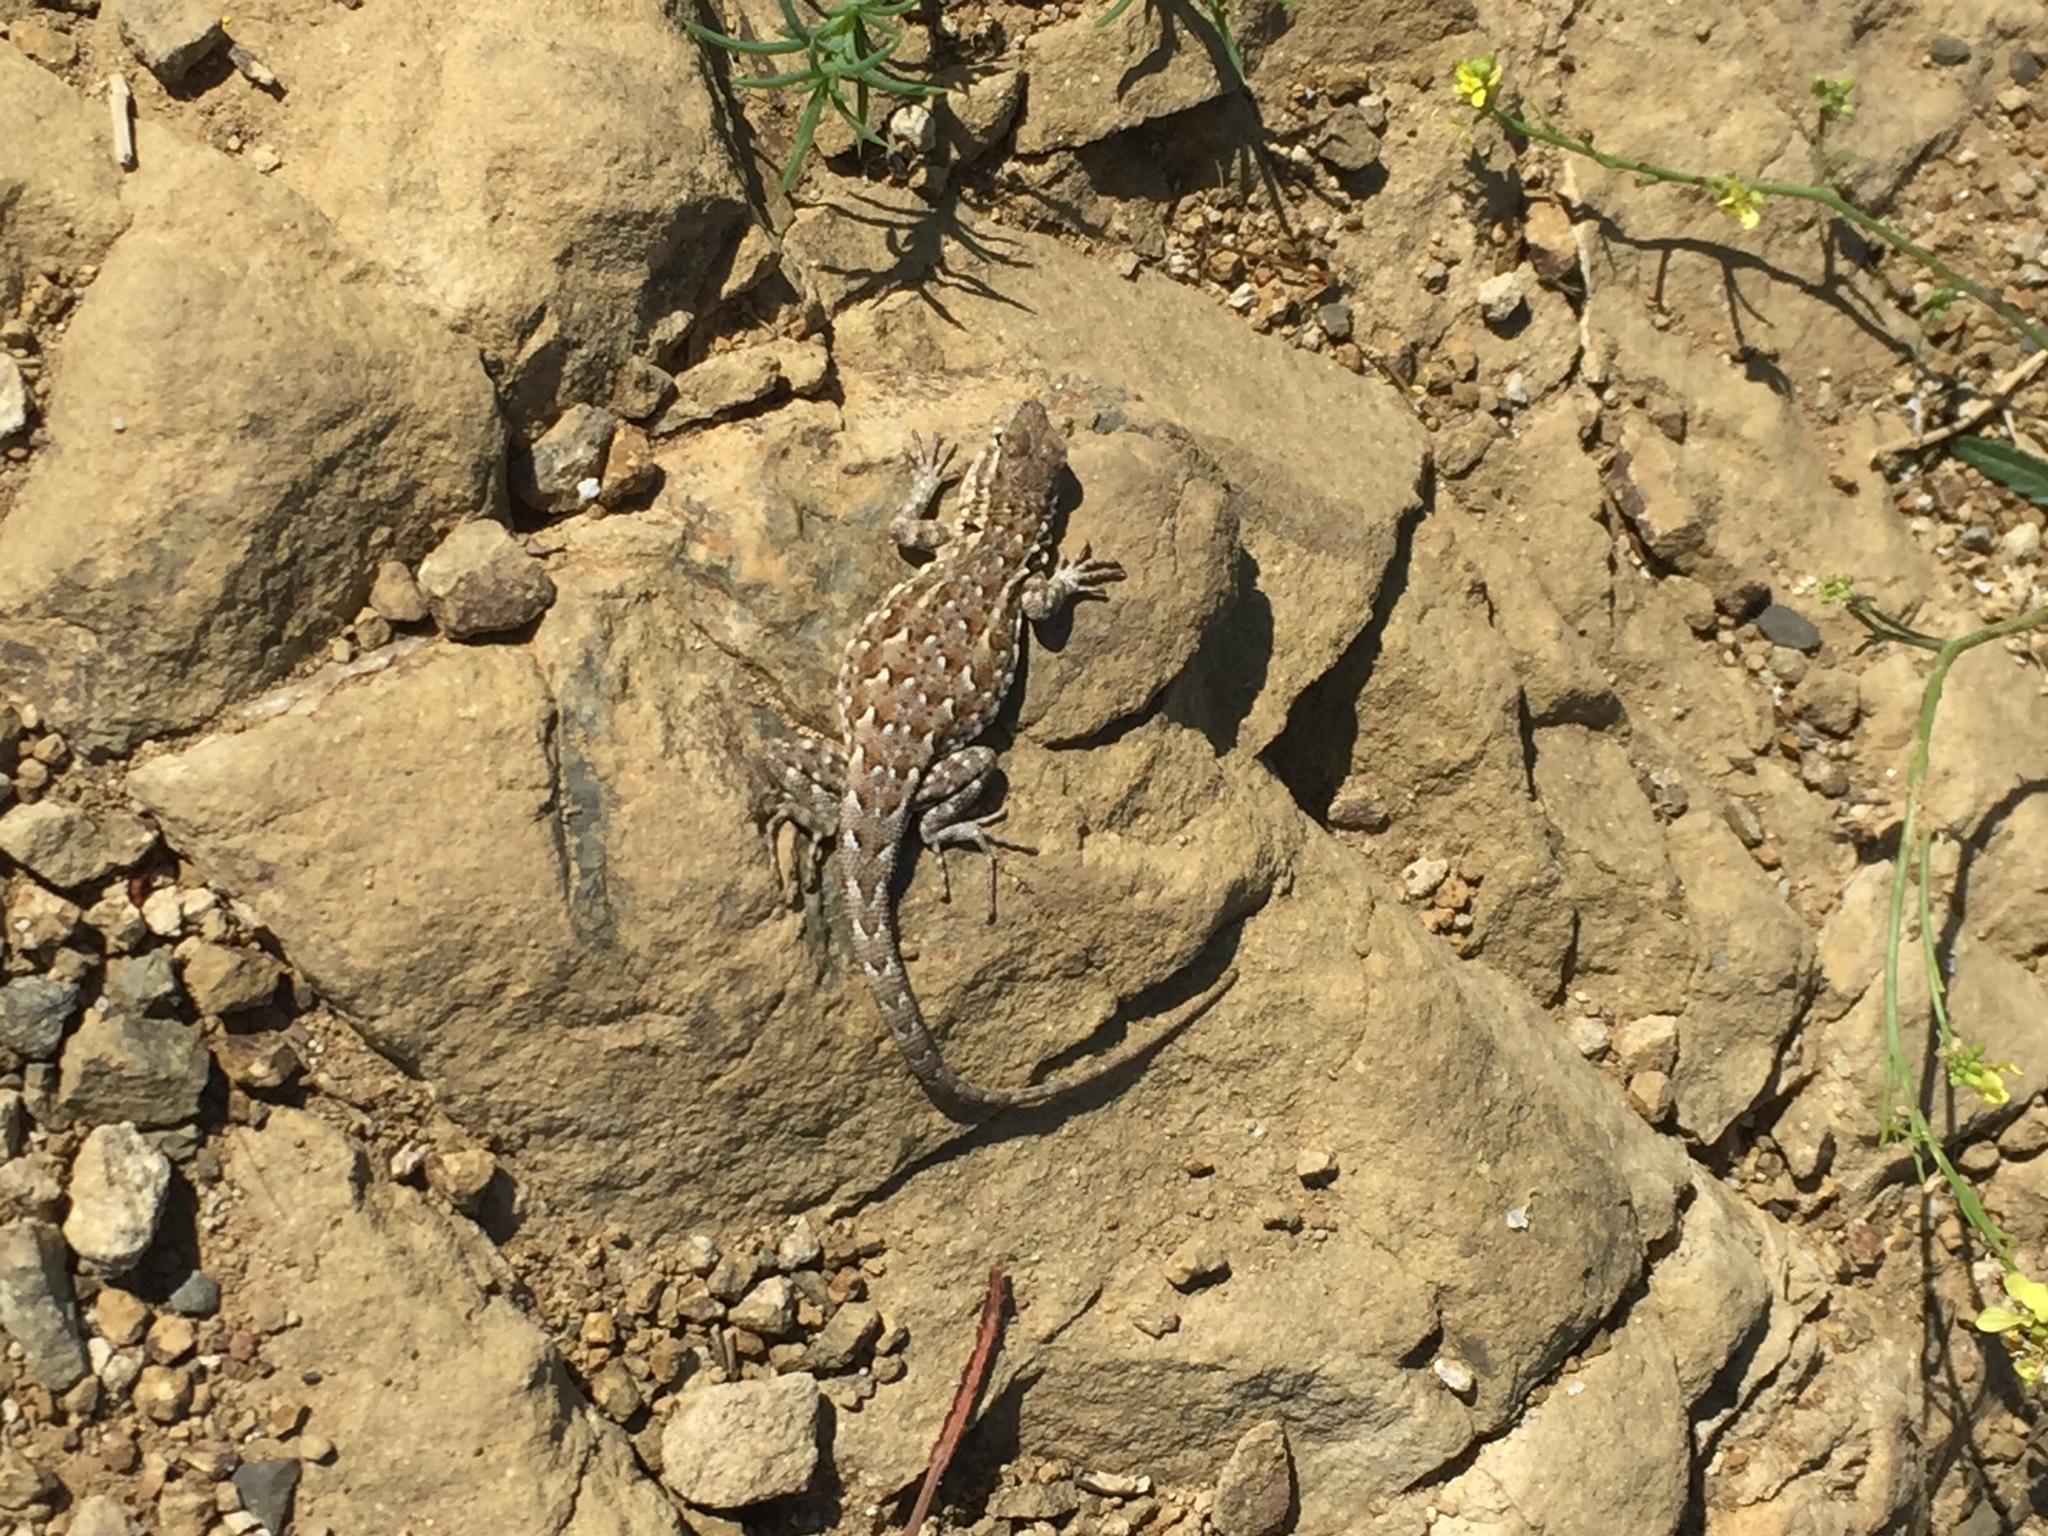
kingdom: Animalia
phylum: Chordata
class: Squamata
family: Phrynosomatidae
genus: Uta
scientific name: Uta stansburiana
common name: Side-blotched lizard
